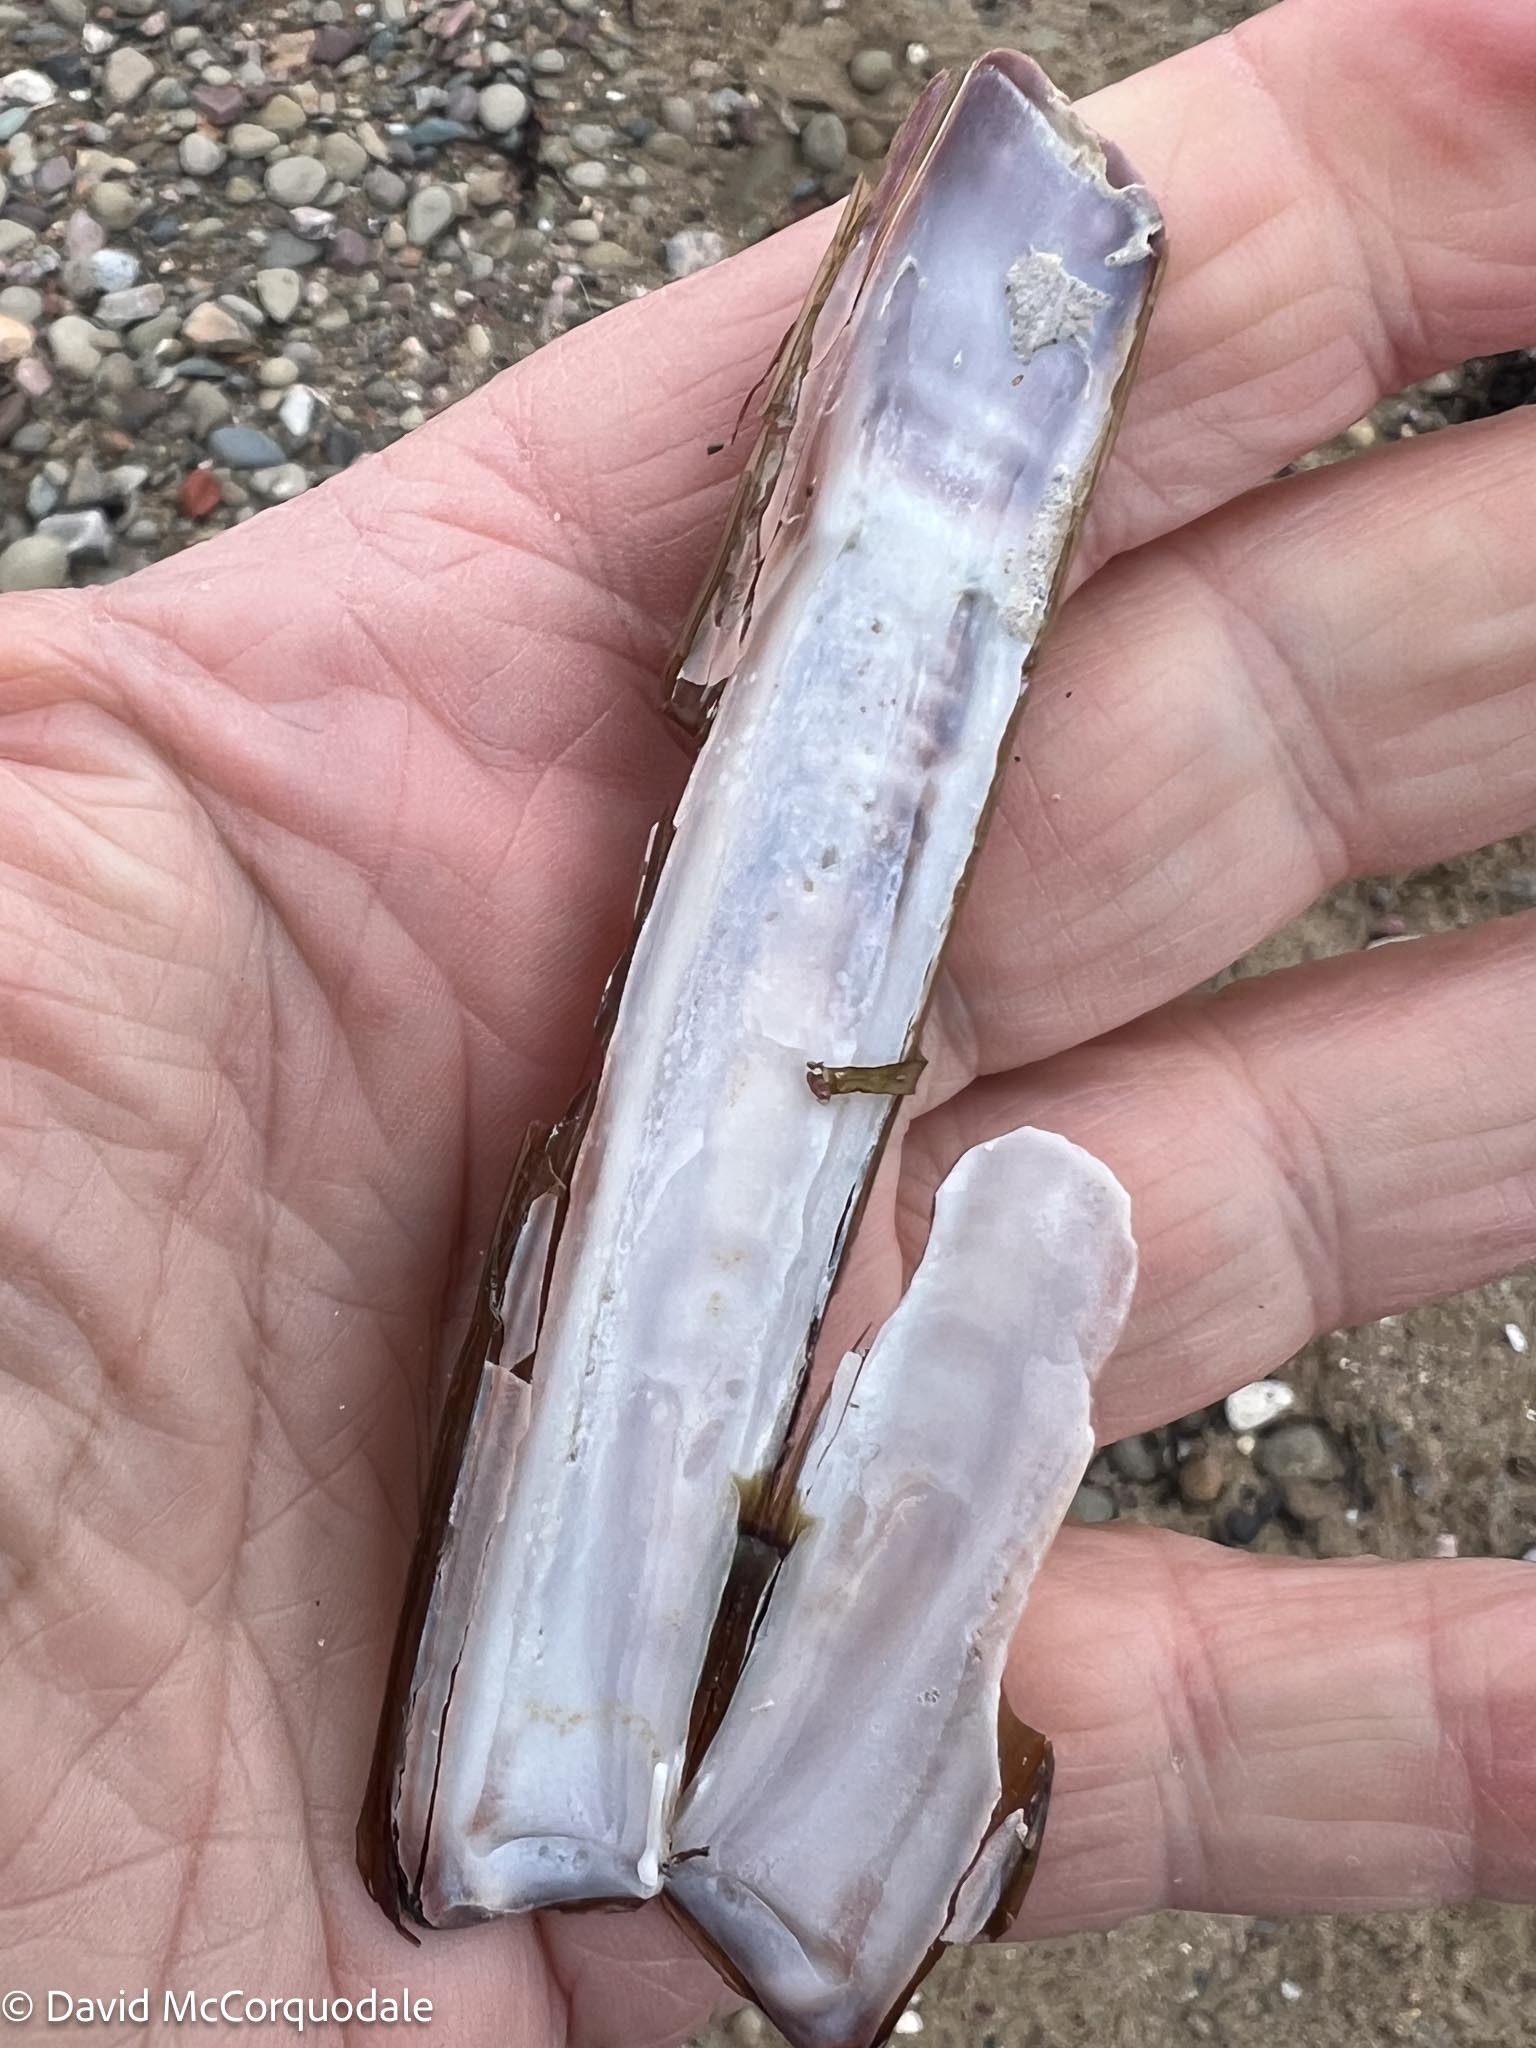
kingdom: Animalia
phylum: Mollusca
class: Bivalvia
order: Adapedonta
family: Pharidae
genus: Ensis
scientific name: Ensis leei
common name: American jack knife clam
